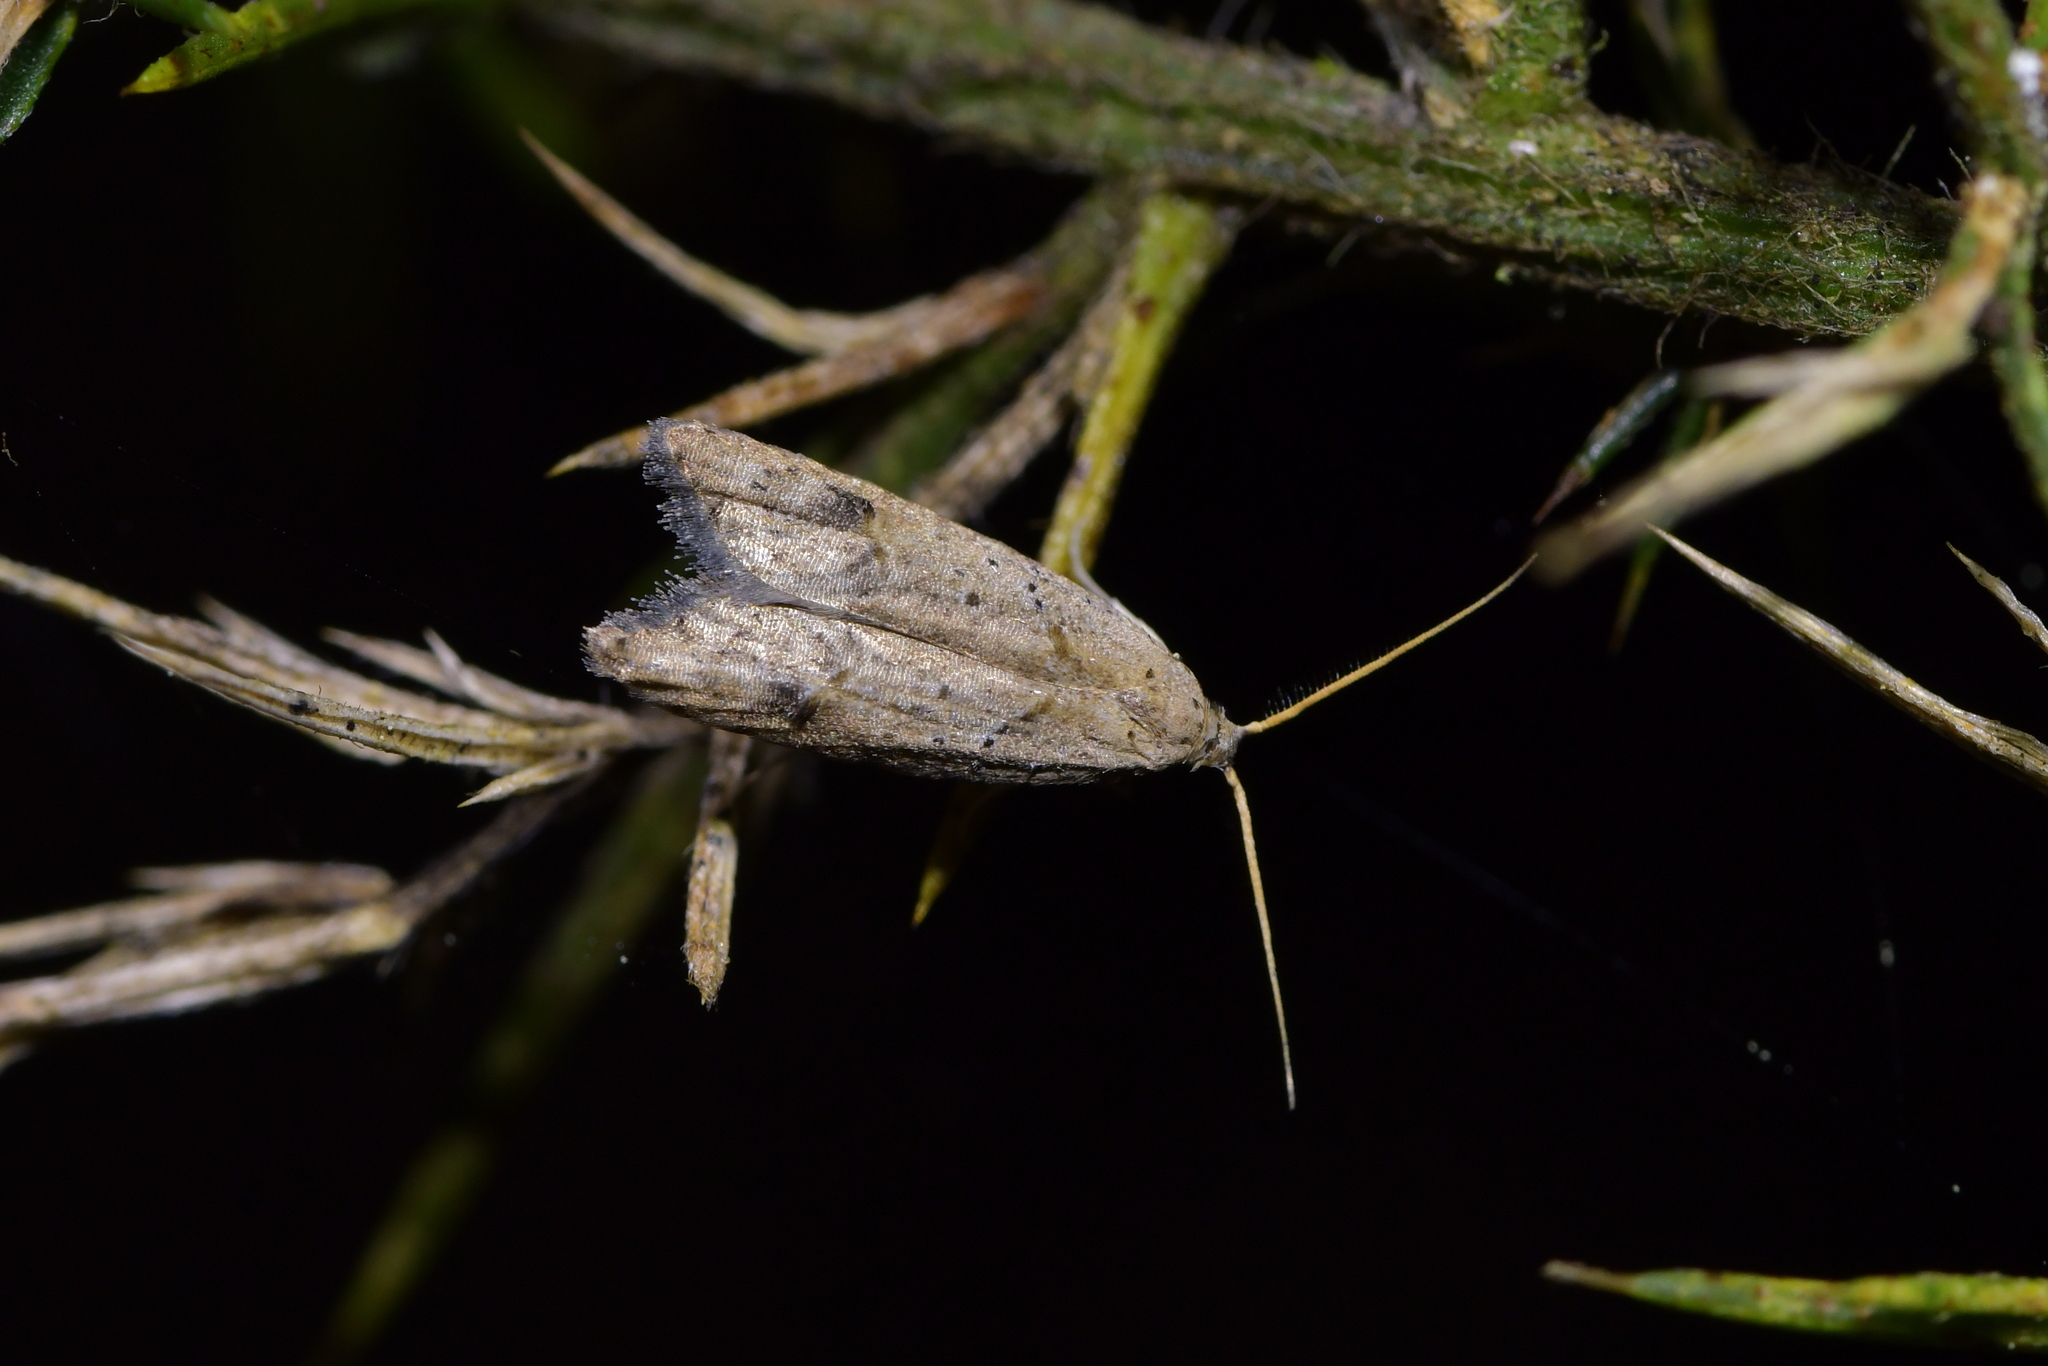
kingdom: Animalia
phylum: Arthropoda
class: Insecta
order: Lepidoptera
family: Carposinidae
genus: Carposina
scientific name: Carposina rubophaga
